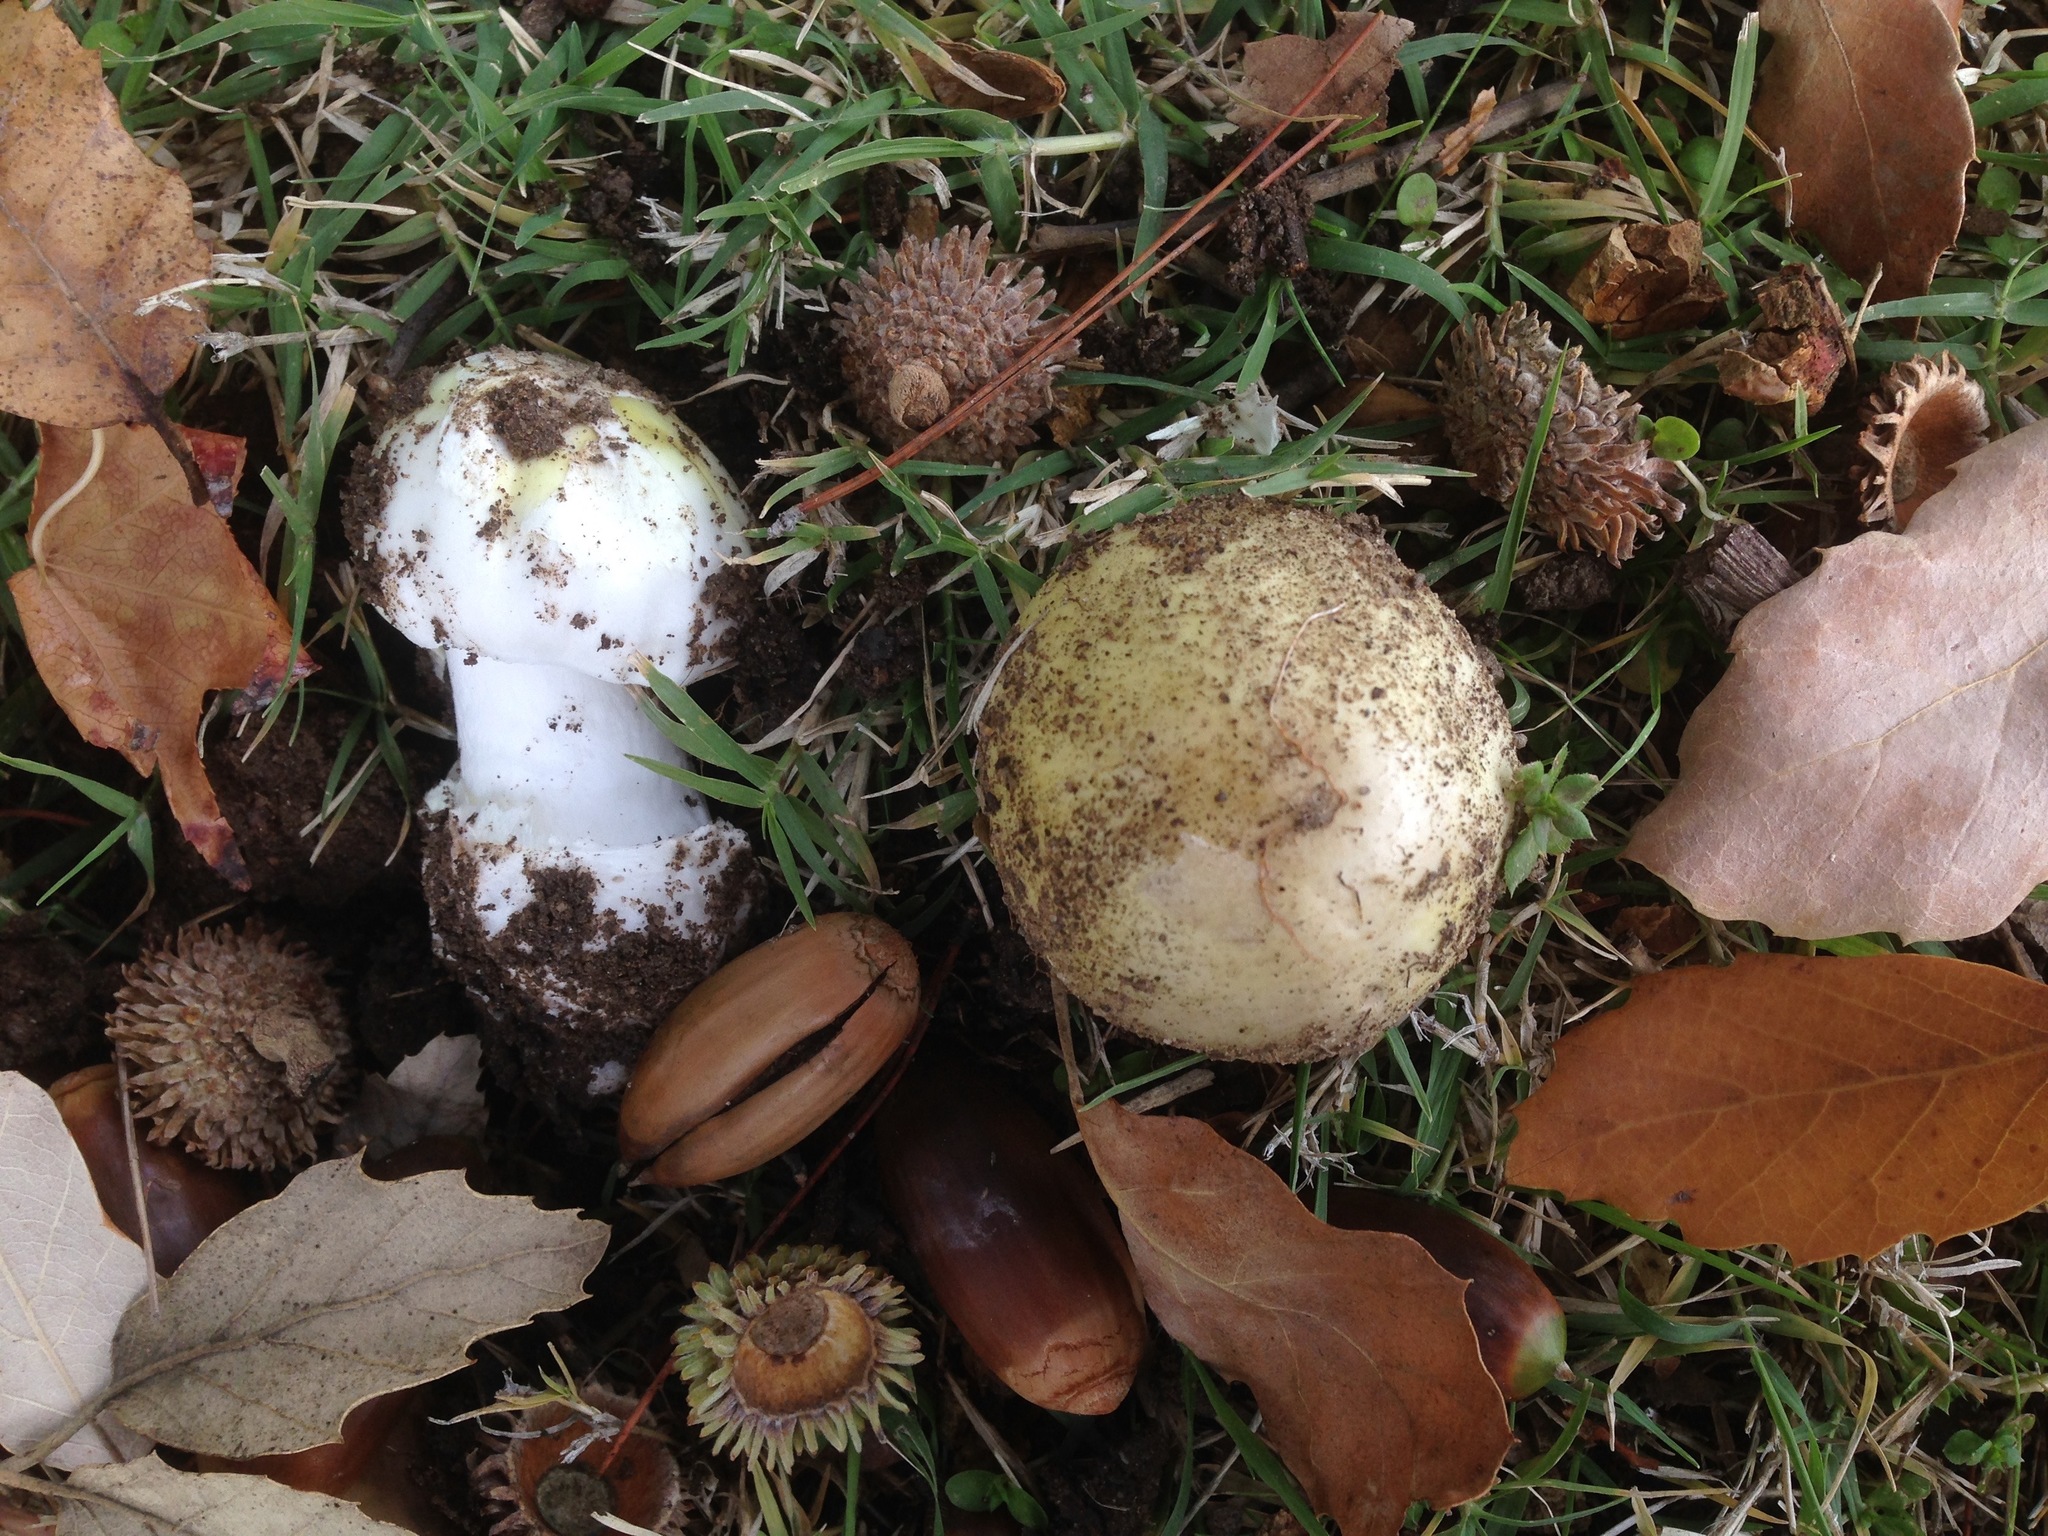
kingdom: Fungi
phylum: Basidiomycota
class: Agaricomycetes
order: Agaricales
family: Amanitaceae
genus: Amanita
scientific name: Amanita phalloides
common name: Death cap
